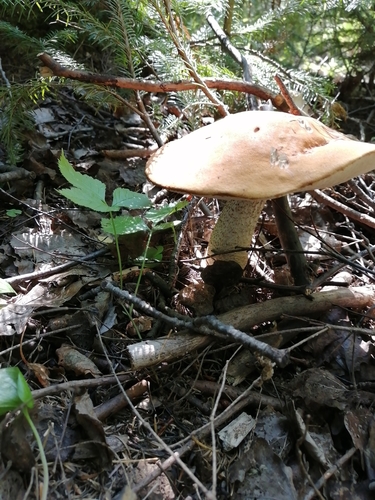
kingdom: Fungi
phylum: Basidiomycota
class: Agaricomycetes
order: Boletales
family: Boletaceae
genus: Leccinum
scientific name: Leccinum
